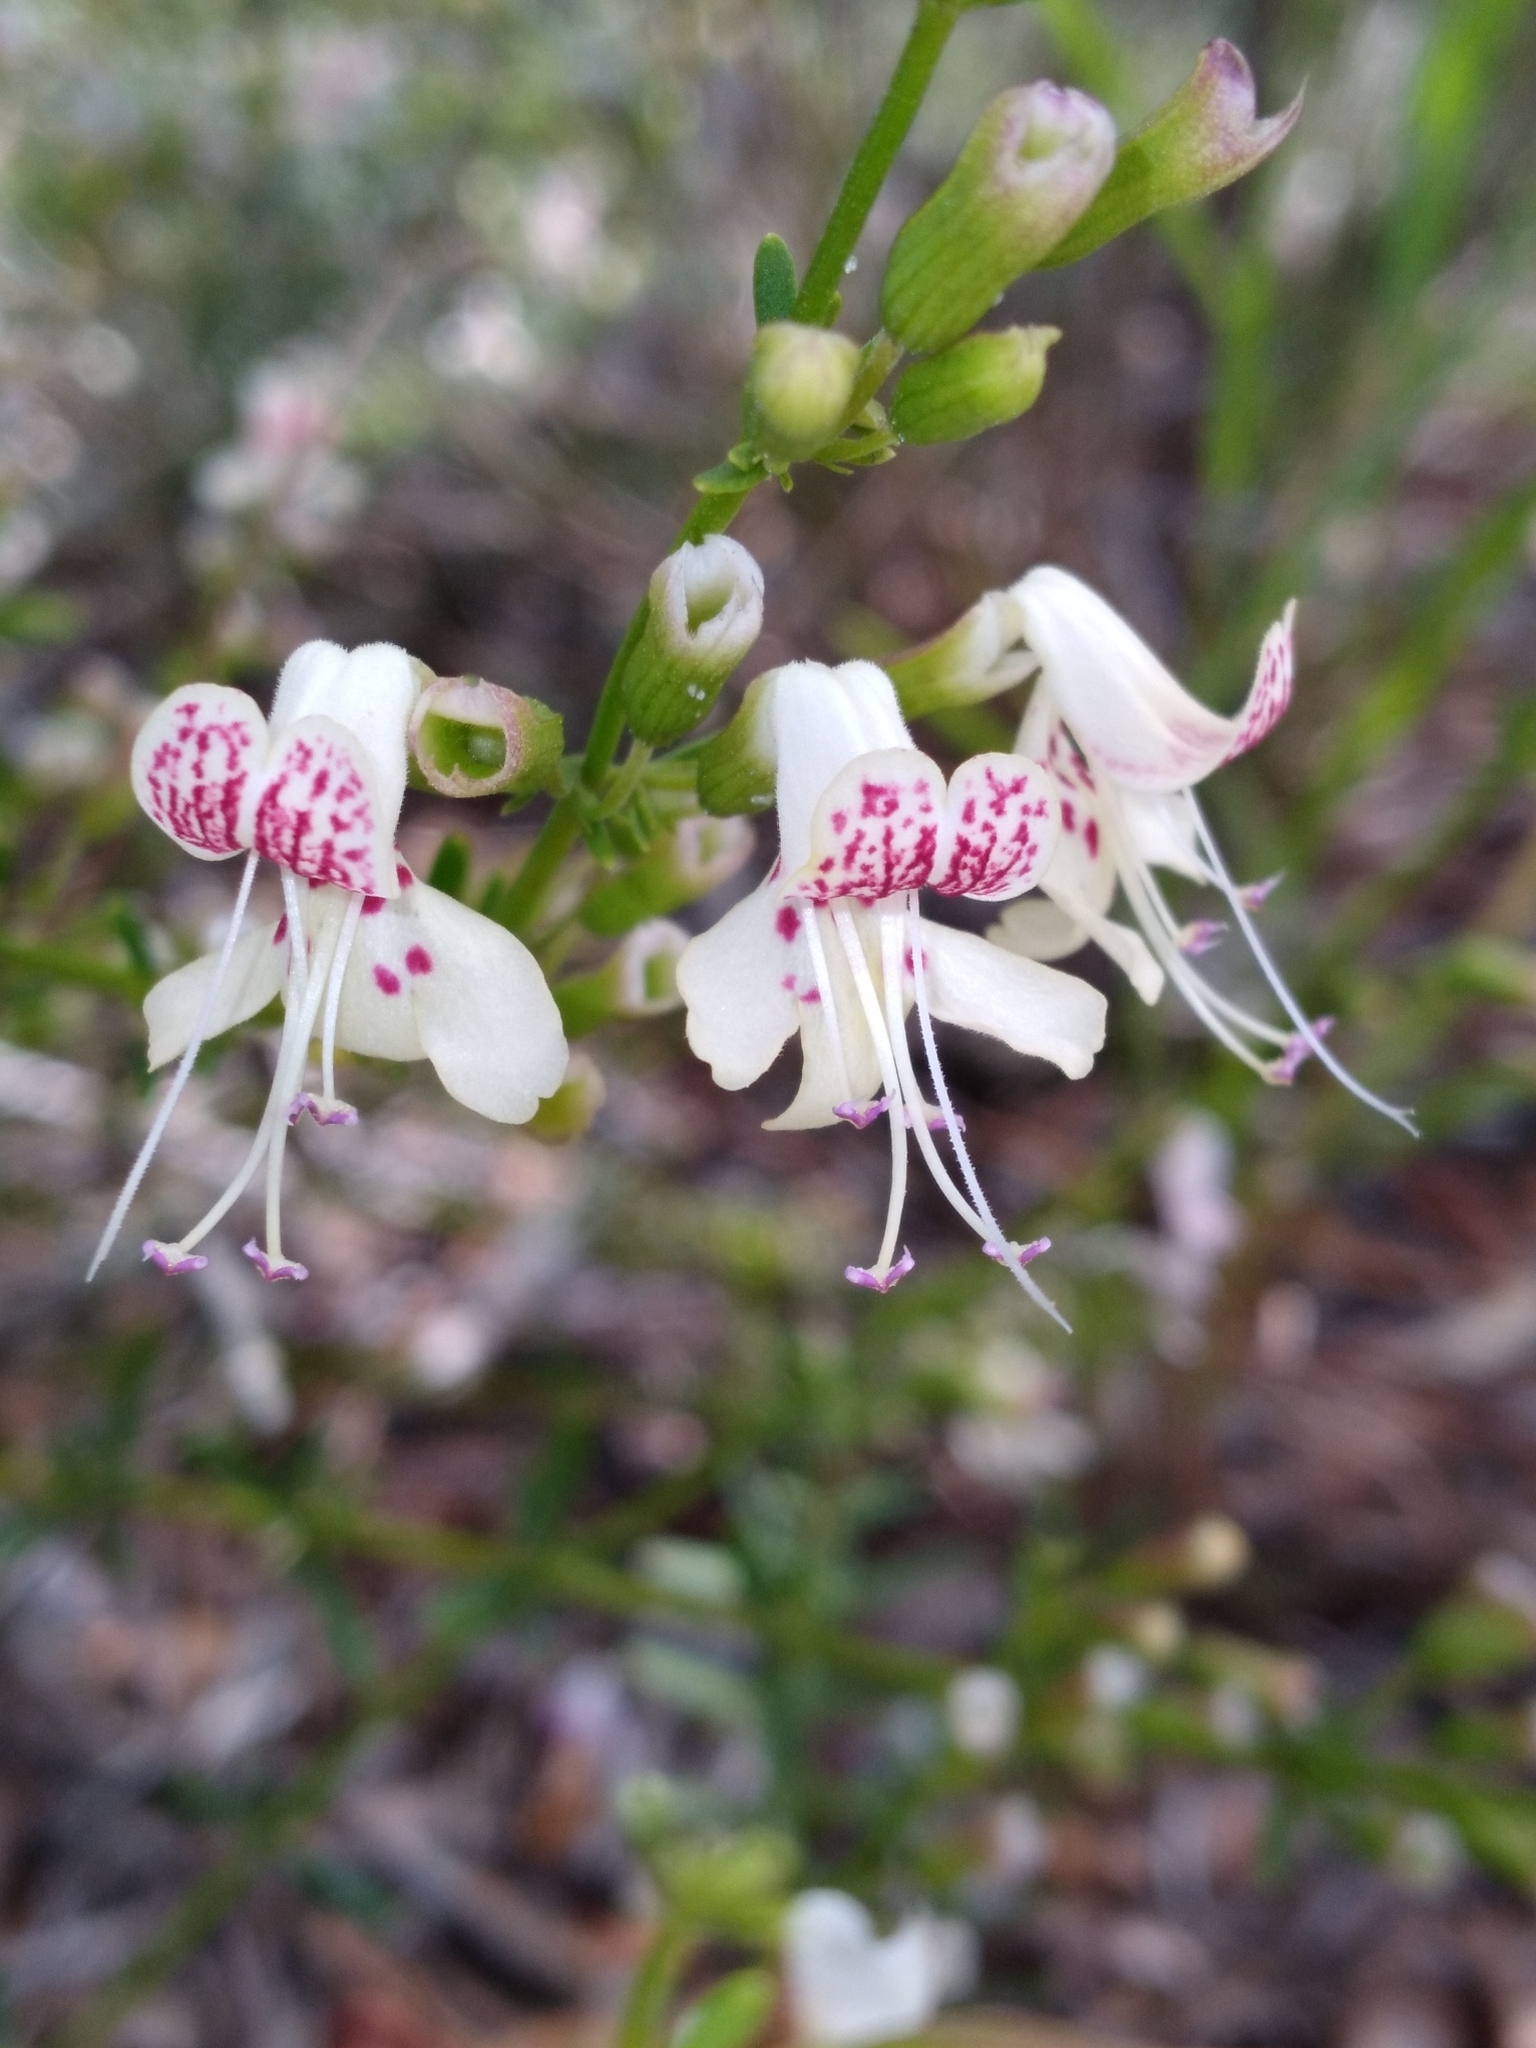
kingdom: Plantae
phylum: Tracheophyta
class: Magnoliopsida
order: Lamiales
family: Lamiaceae
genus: Dicerandra
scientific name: Dicerandra frutescens
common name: Scrub-mint
